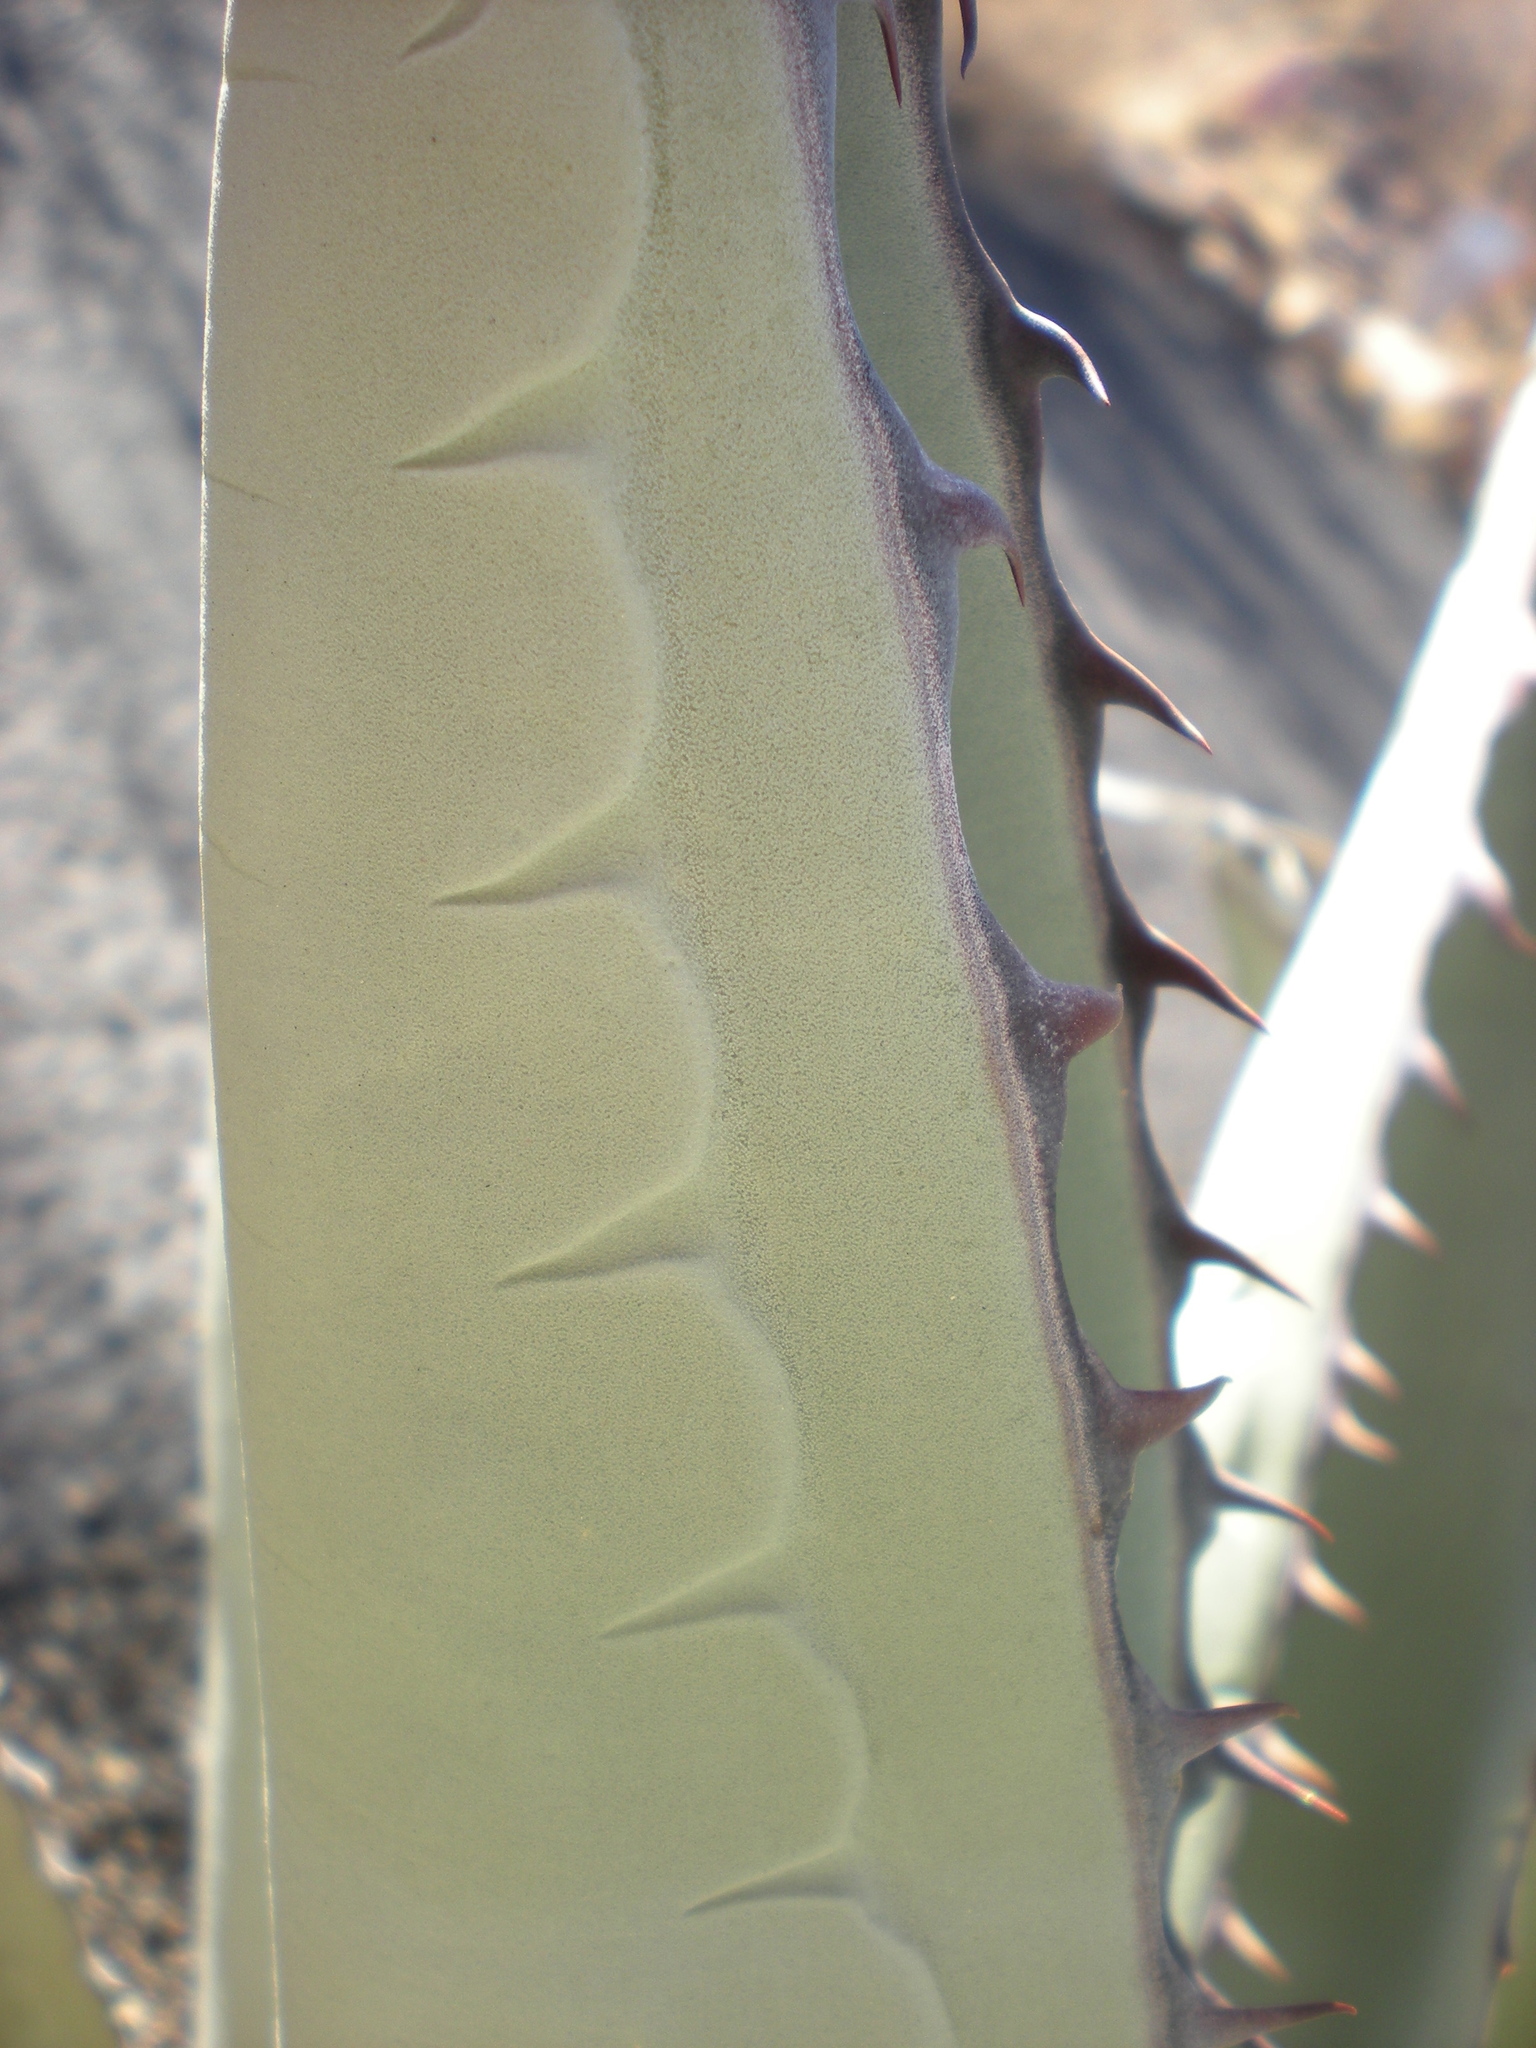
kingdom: Plantae
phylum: Tracheophyta
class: Liliopsida
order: Asparagales
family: Asparagaceae
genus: Agave
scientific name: Agave havardiana
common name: Havard agave
